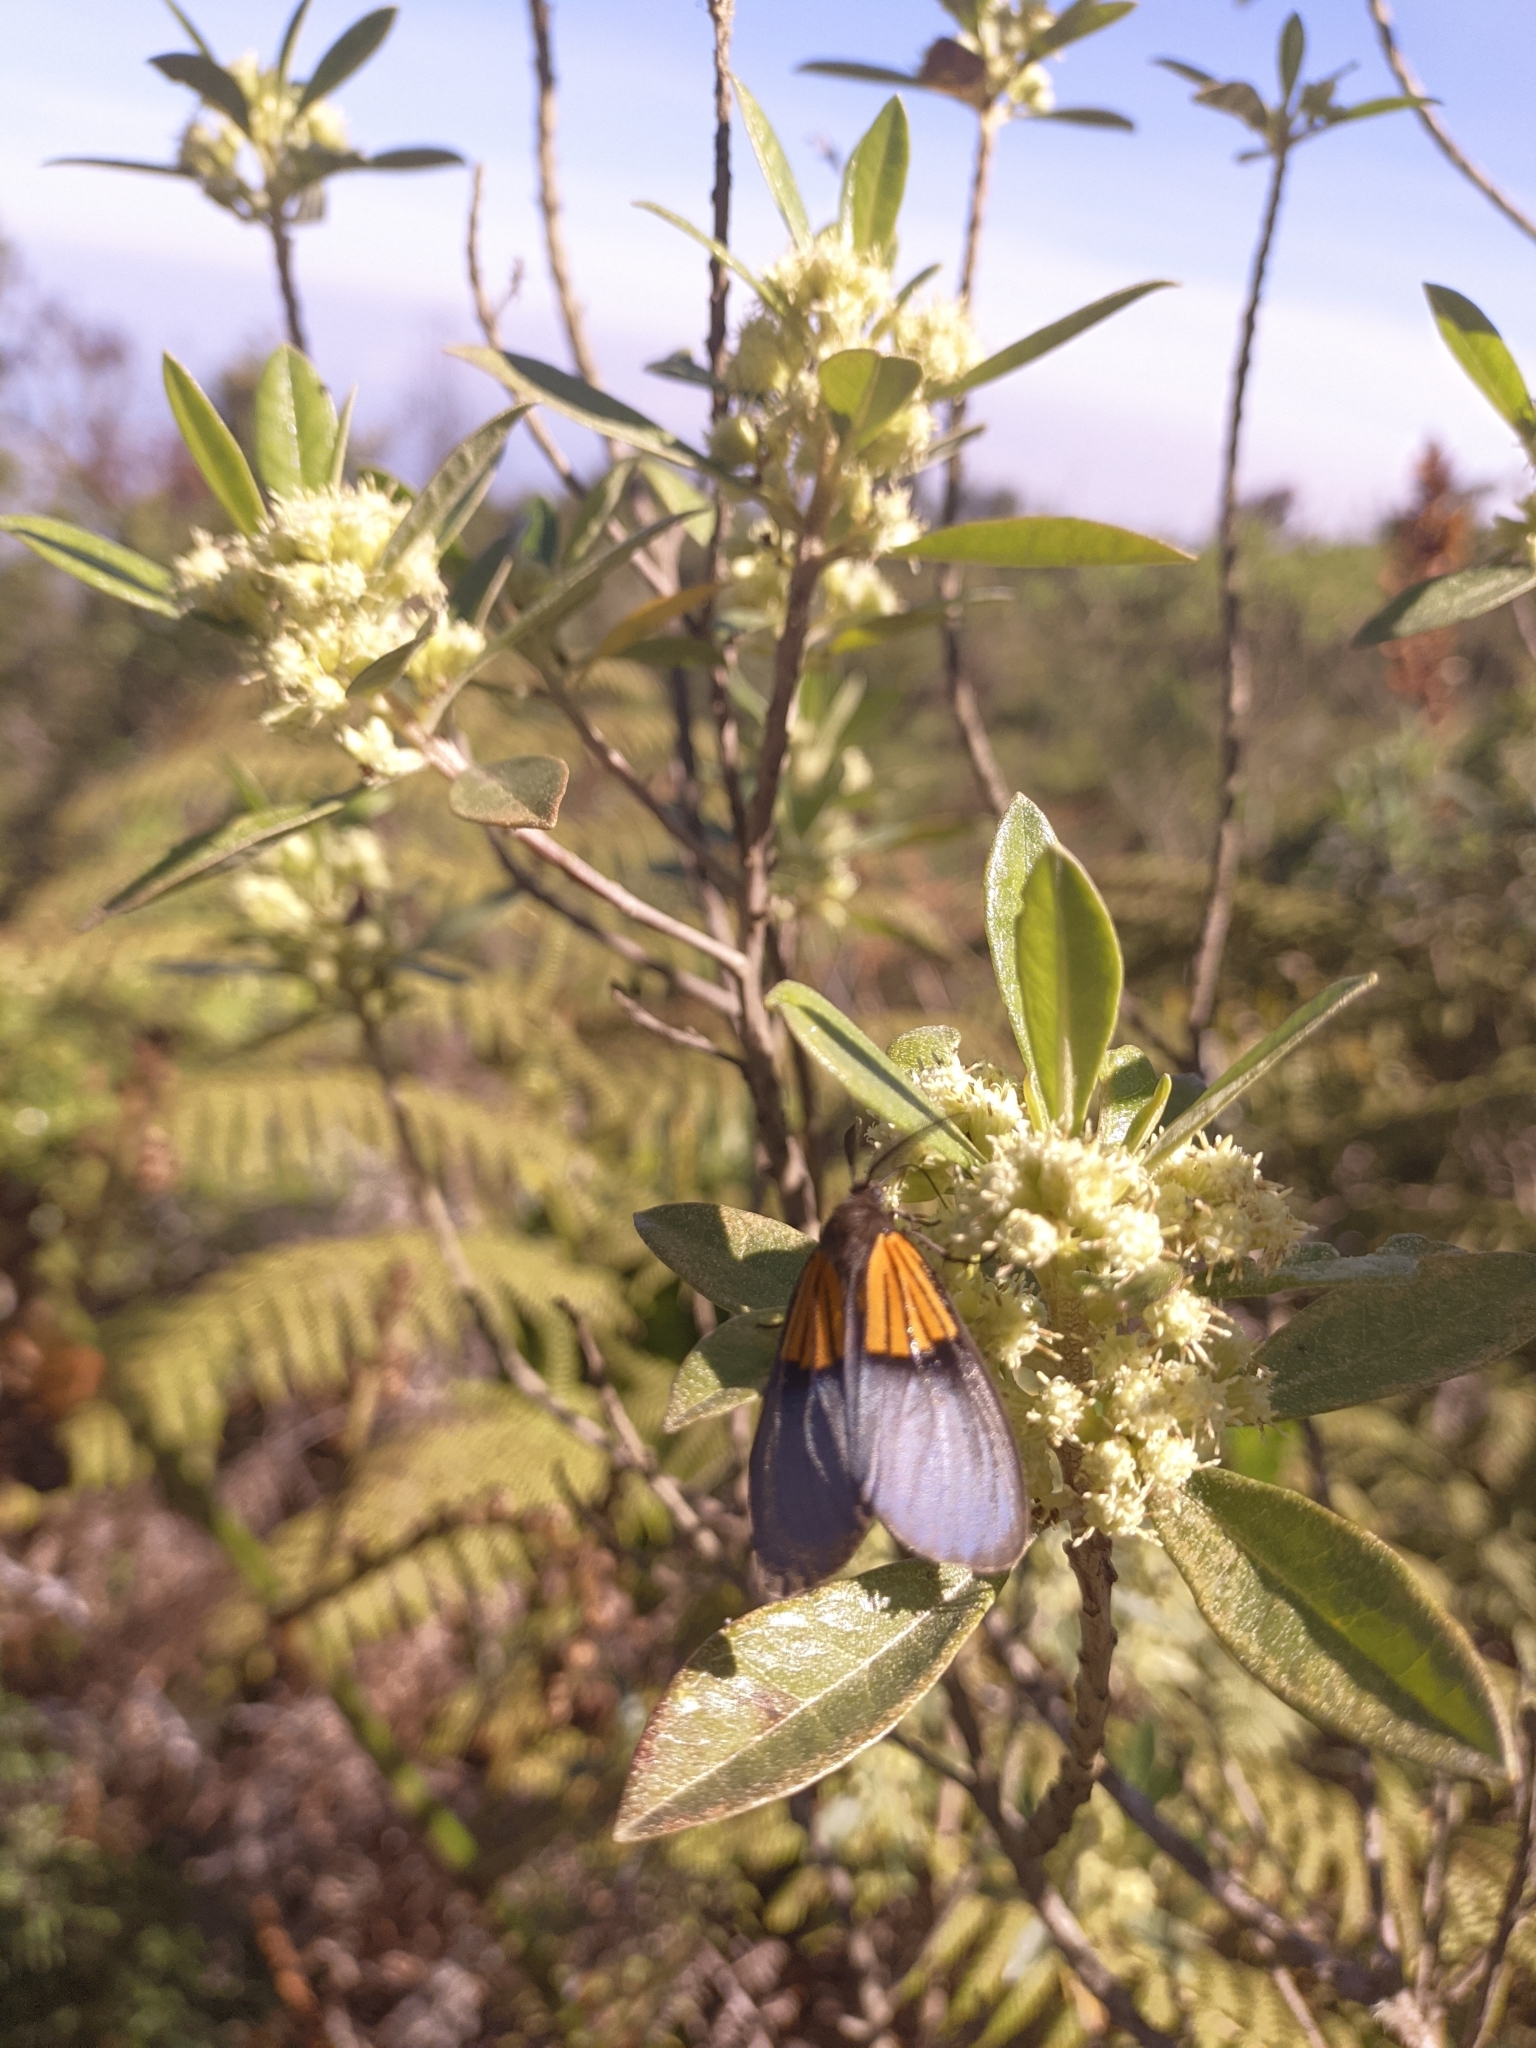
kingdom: Animalia
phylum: Arthropoda
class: Insecta
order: Lepidoptera
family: Notodontidae
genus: Scea
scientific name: Scea
